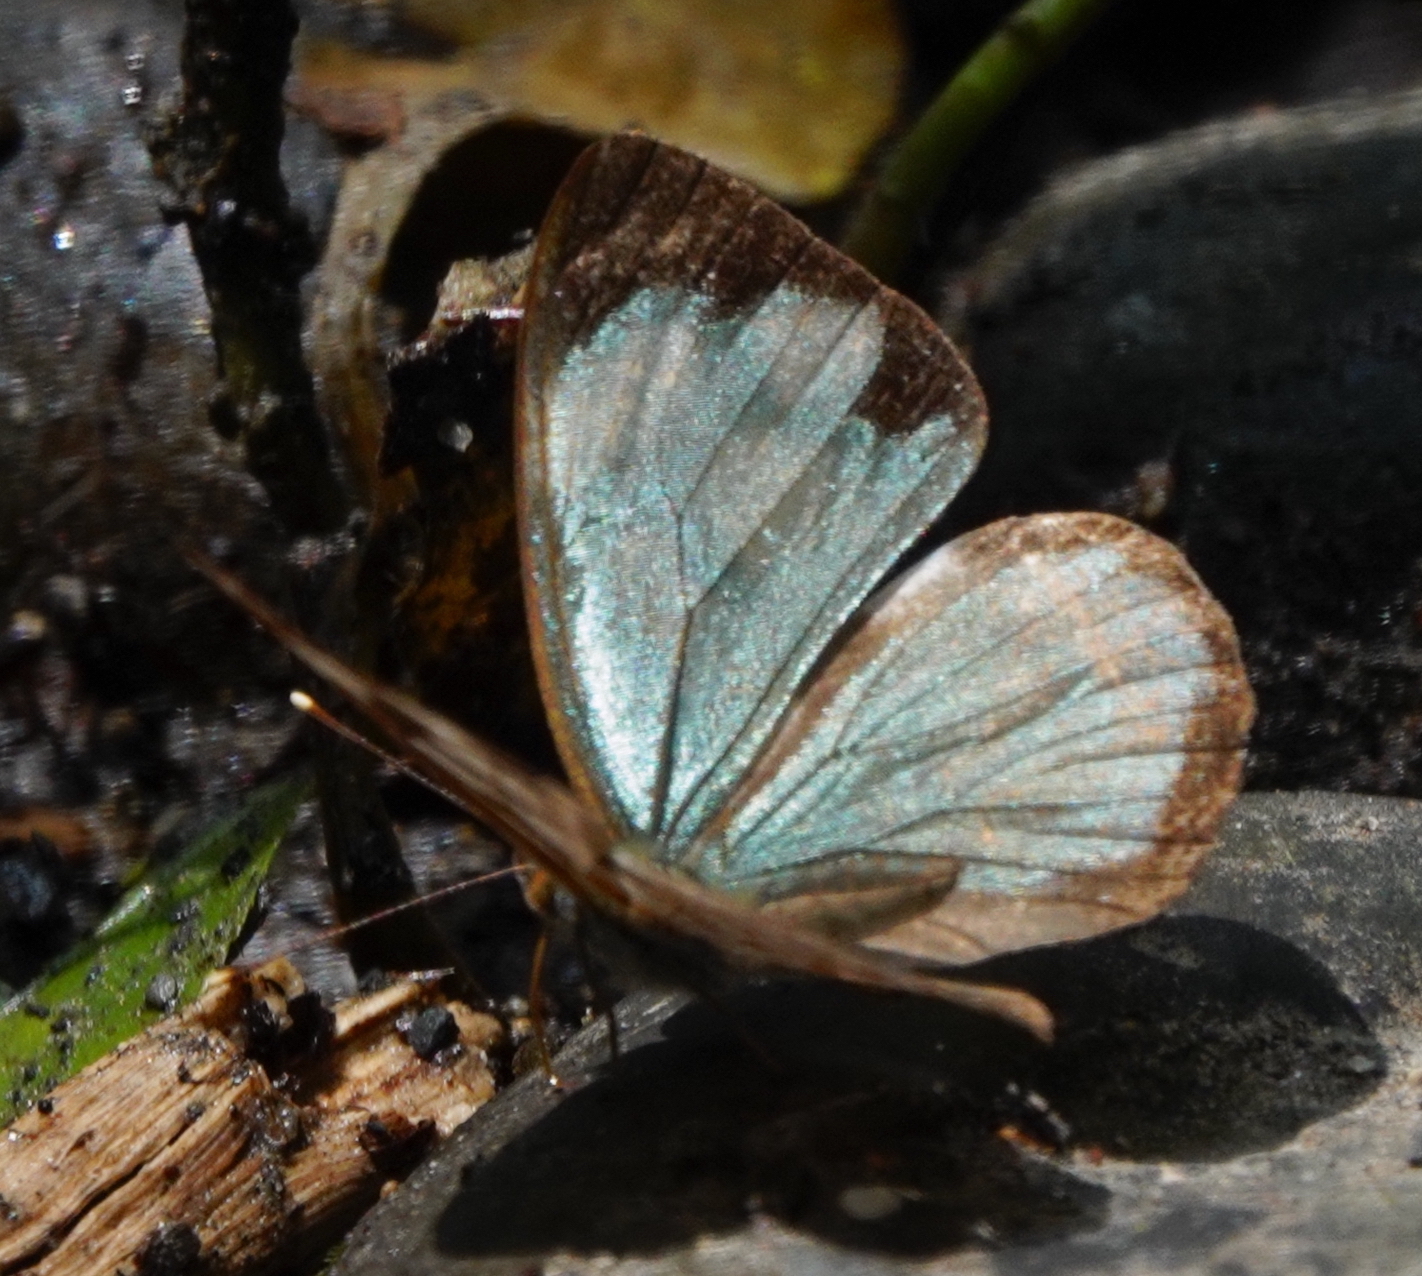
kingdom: Animalia
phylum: Arthropoda
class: Insecta
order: Lepidoptera
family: Nymphalidae
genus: Dynamine
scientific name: Dynamine sosthenes
